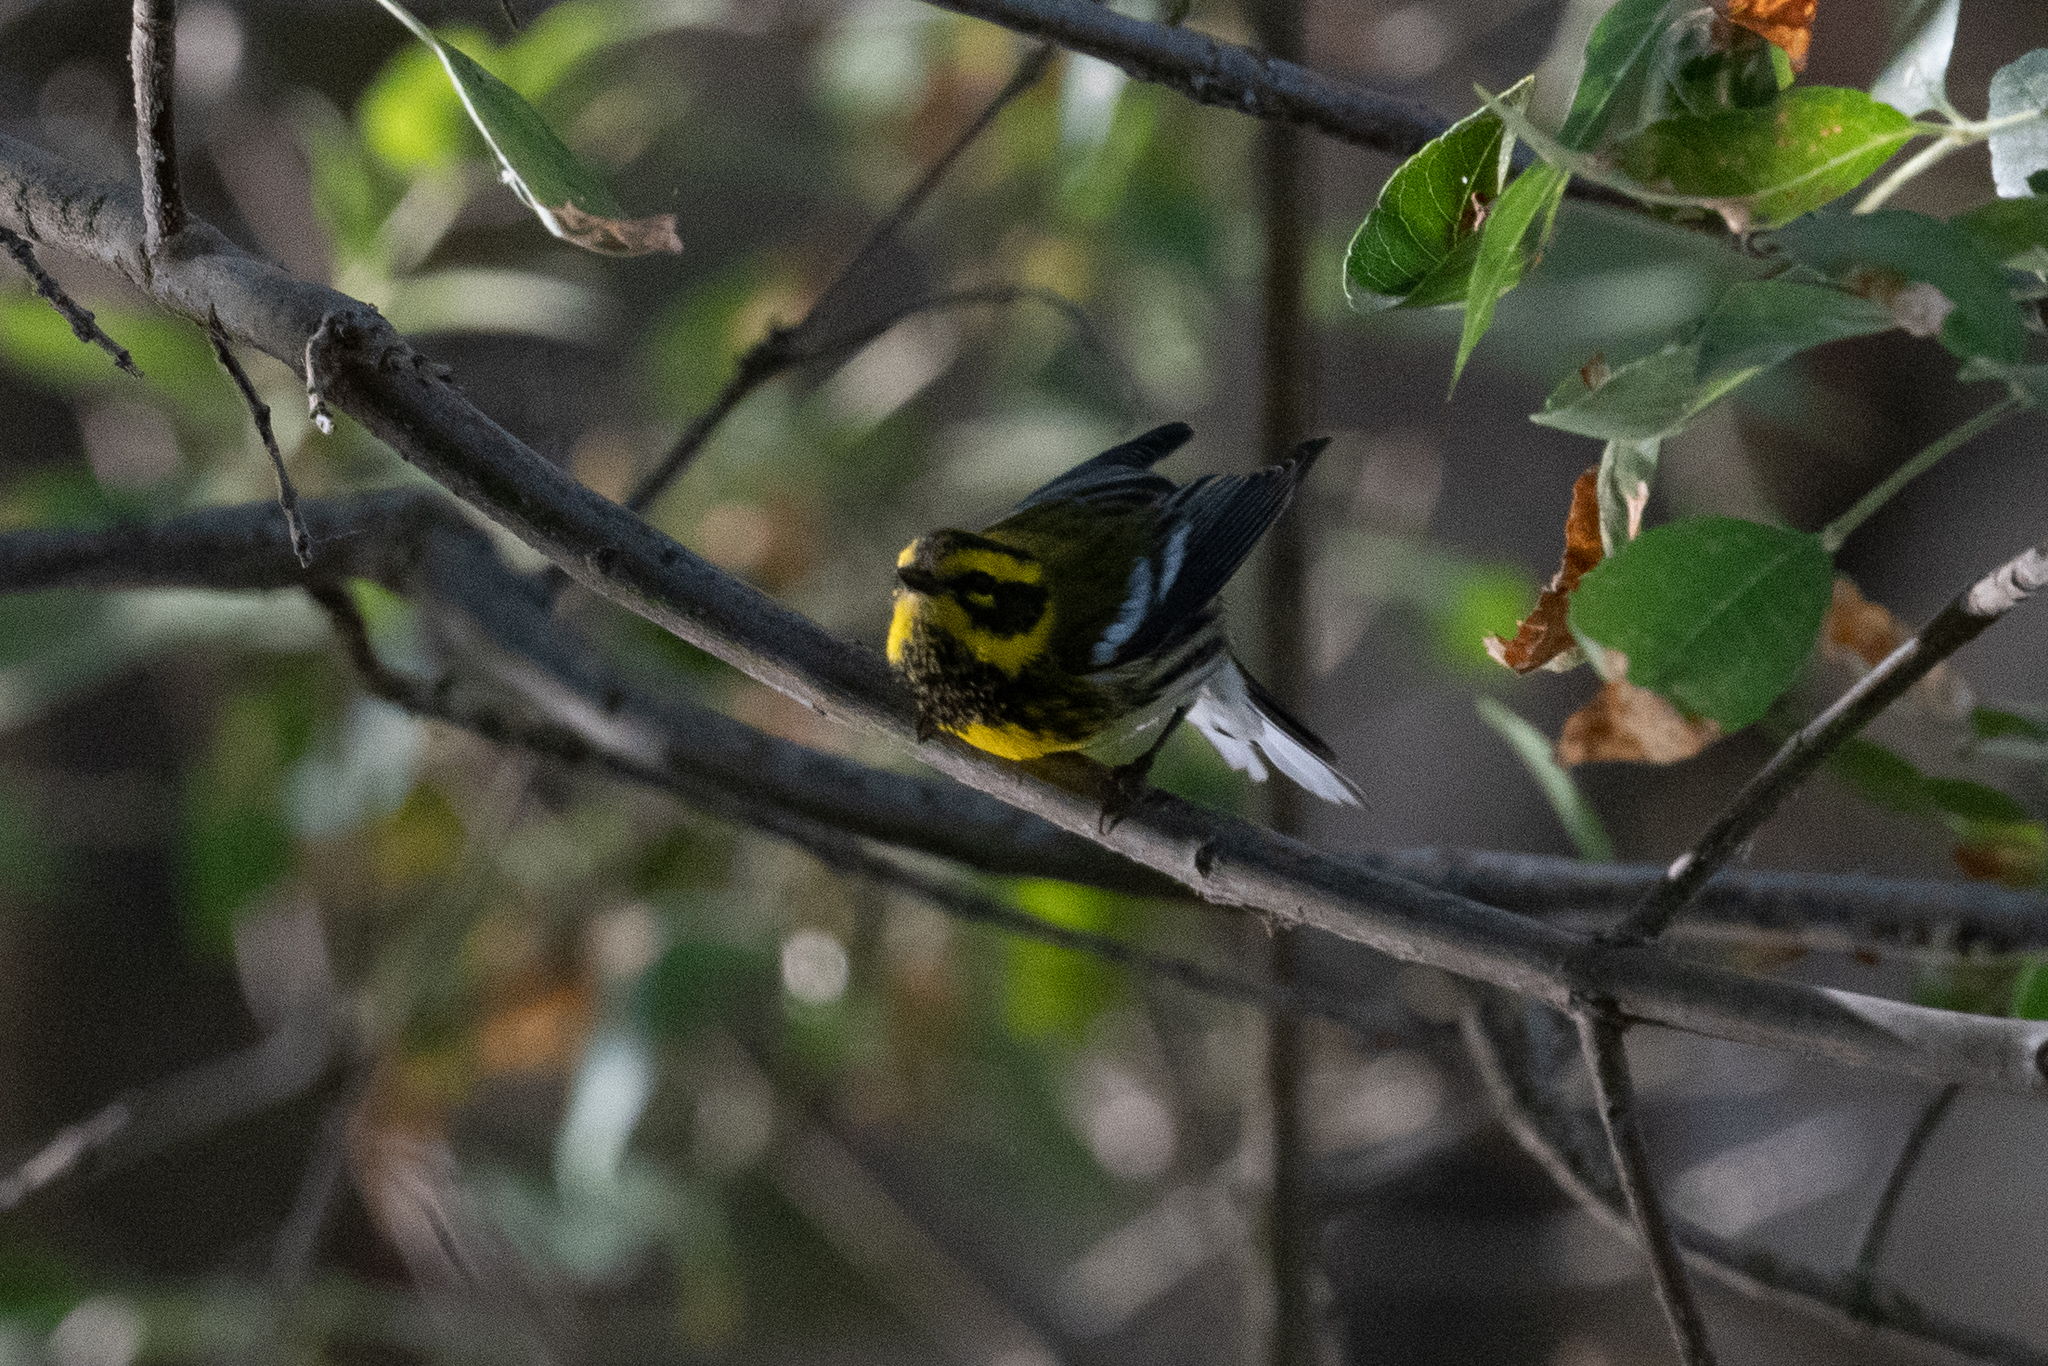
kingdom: Animalia
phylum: Chordata
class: Aves
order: Passeriformes
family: Parulidae
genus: Setophaga
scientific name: Setophaga townsendi
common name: Townsend's warbler
